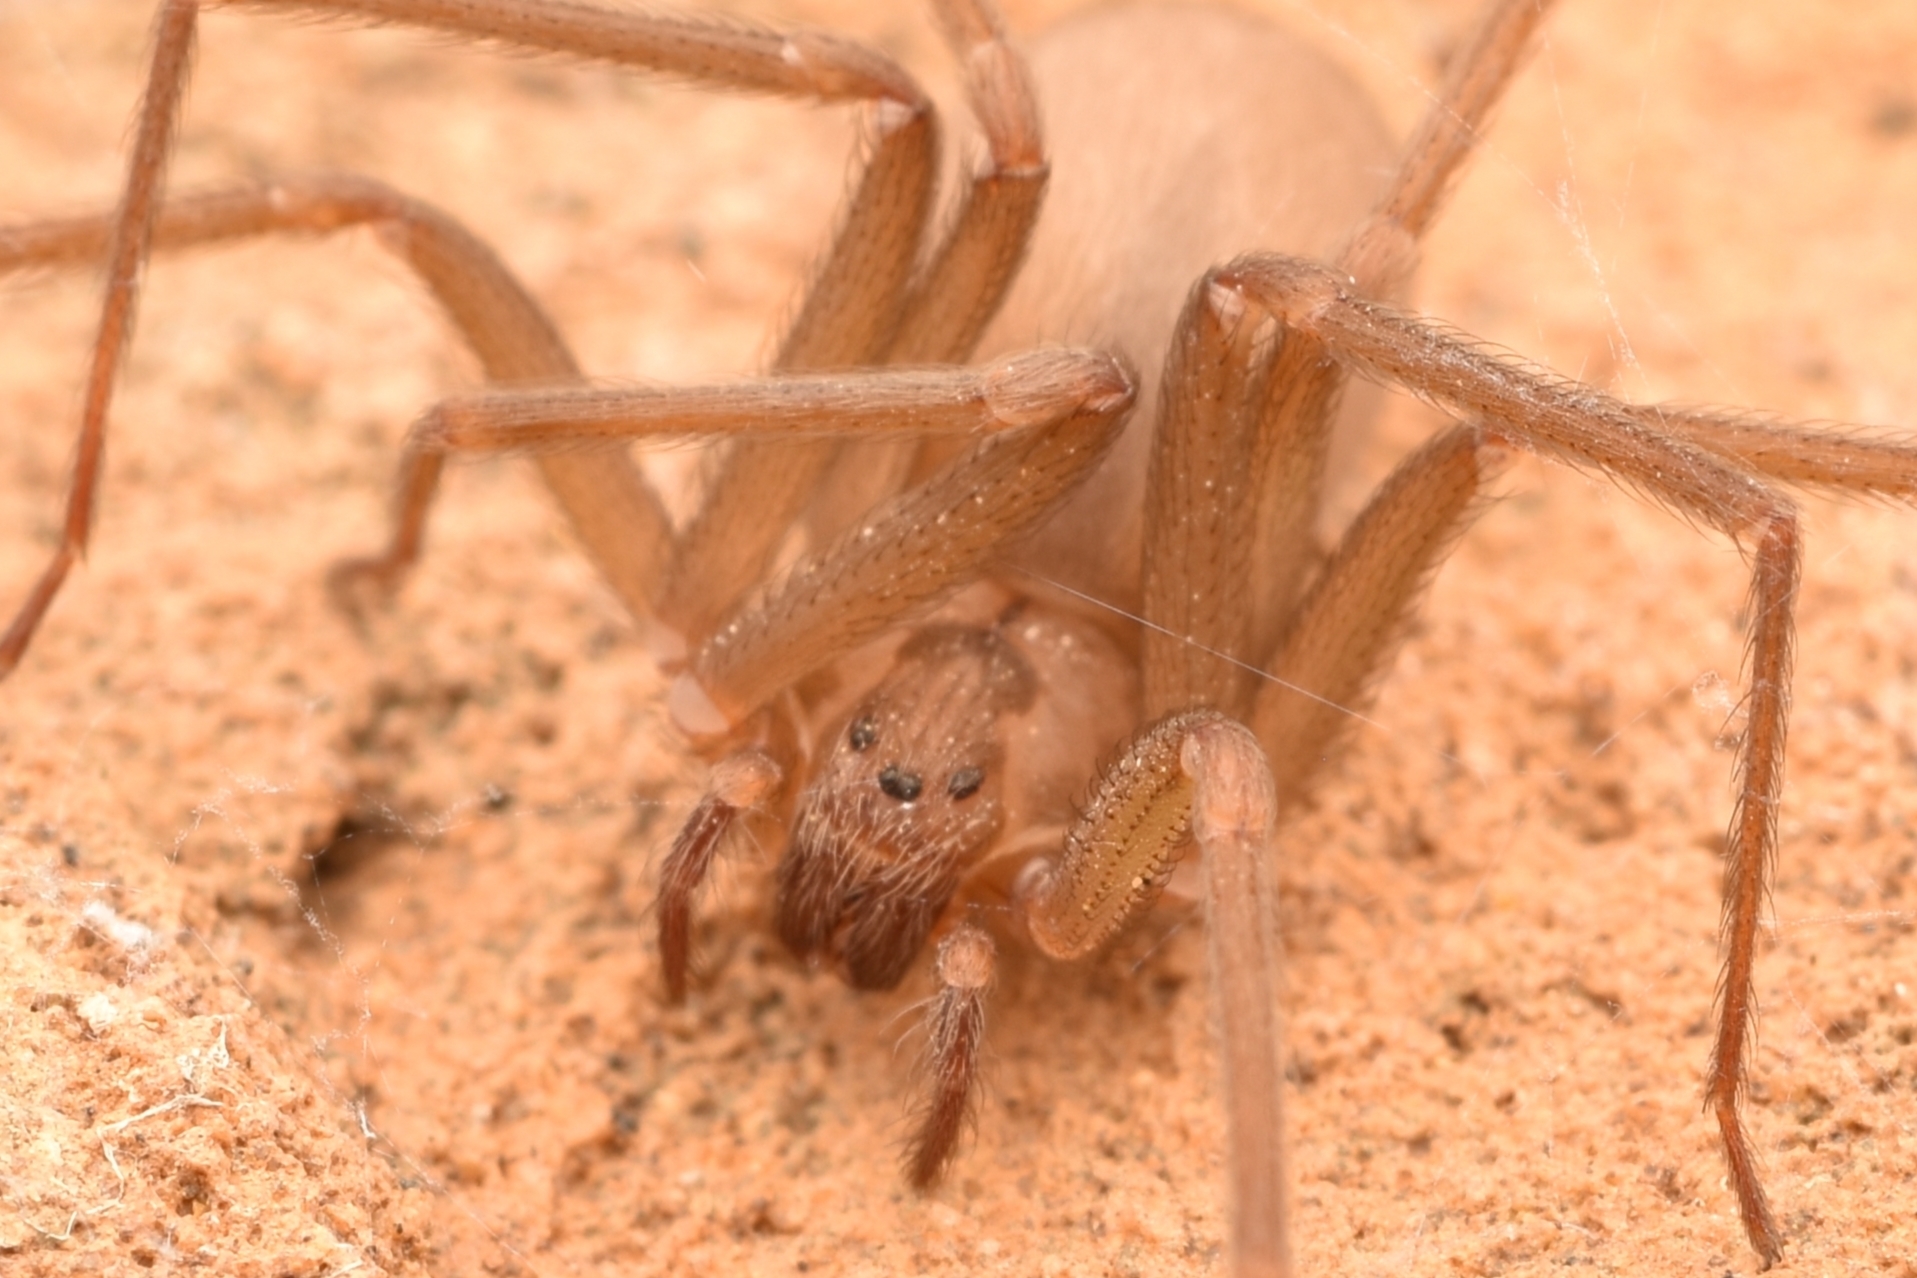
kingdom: Animalia
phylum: Arthropoda
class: Arachnida
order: Araneae
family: Sicariidae
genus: Loxosceles
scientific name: Loxosceles reclusa
